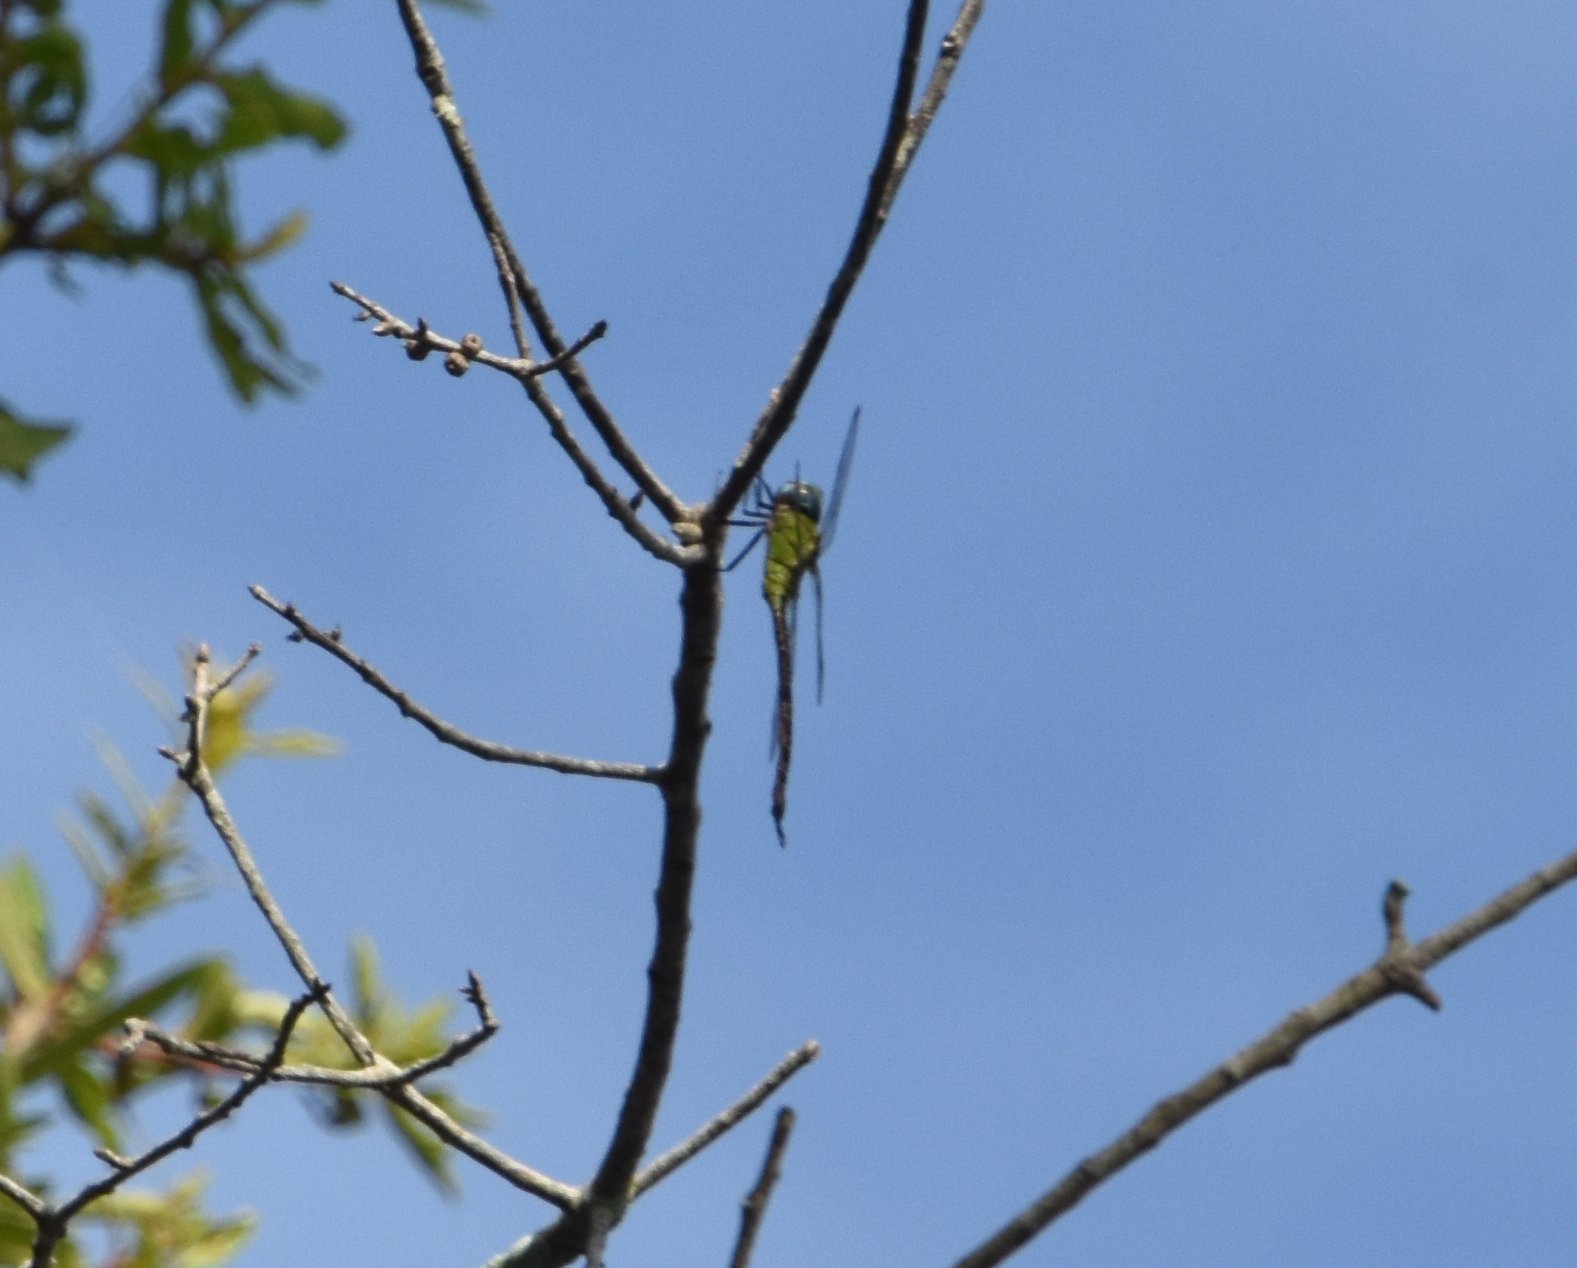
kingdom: Animalia
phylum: Arthropoda
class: Insecta
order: Odonata
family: Aeshnidae
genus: Coryphaeschna
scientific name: Coryphaeschna adnexa
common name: Blue-faced darner
